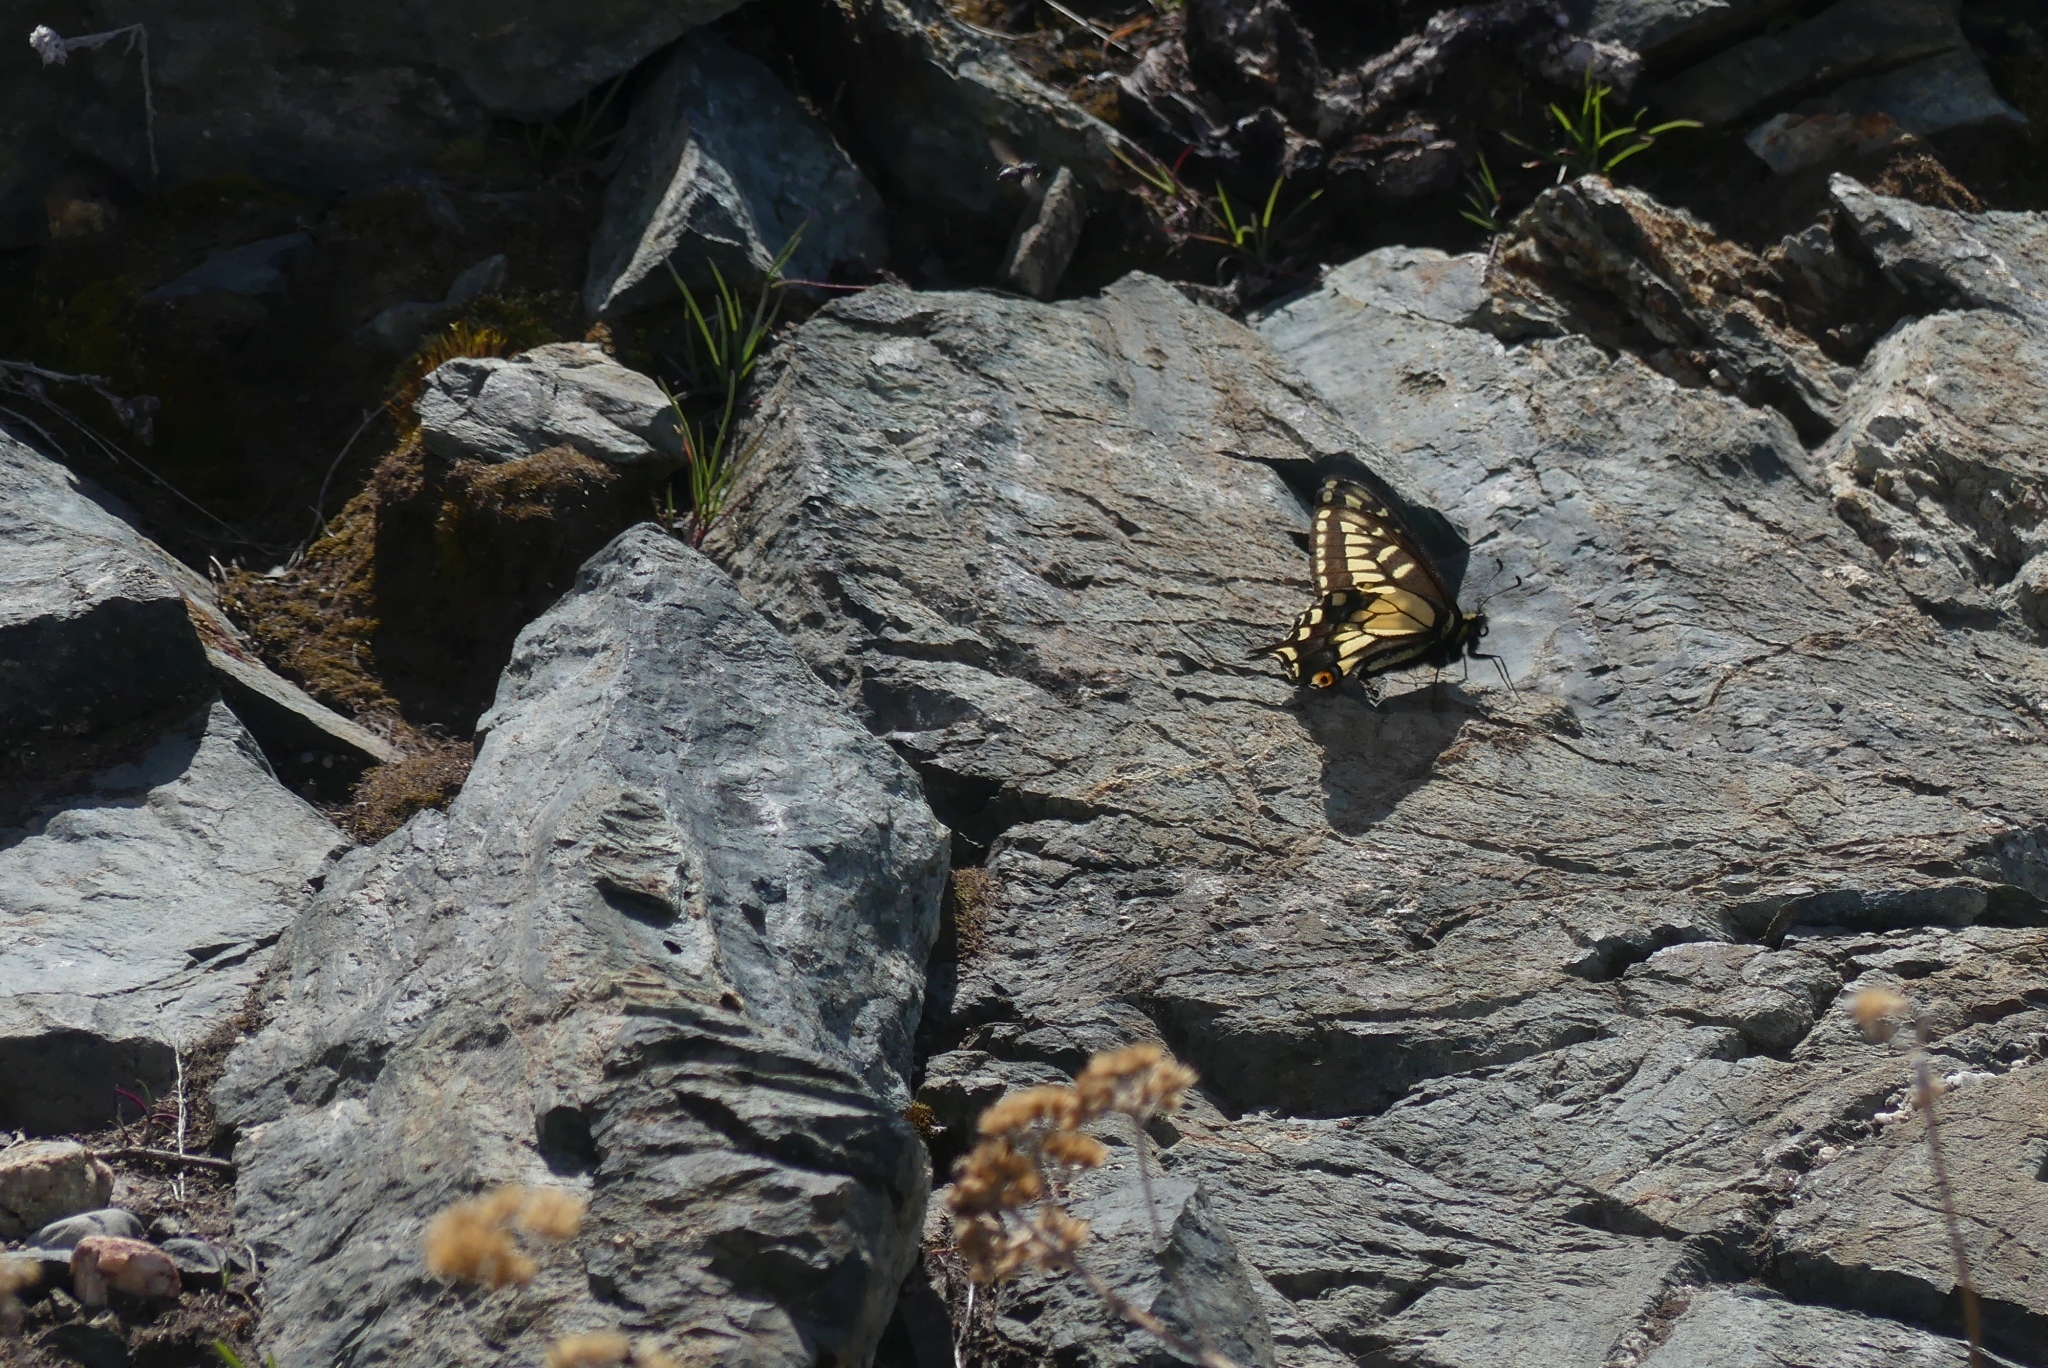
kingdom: Animalia
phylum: Arthropoda
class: Insecta
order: Lepidoptera
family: Papilionidae
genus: Papilio
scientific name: Papilio zelicaon
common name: Anise swallowtail
